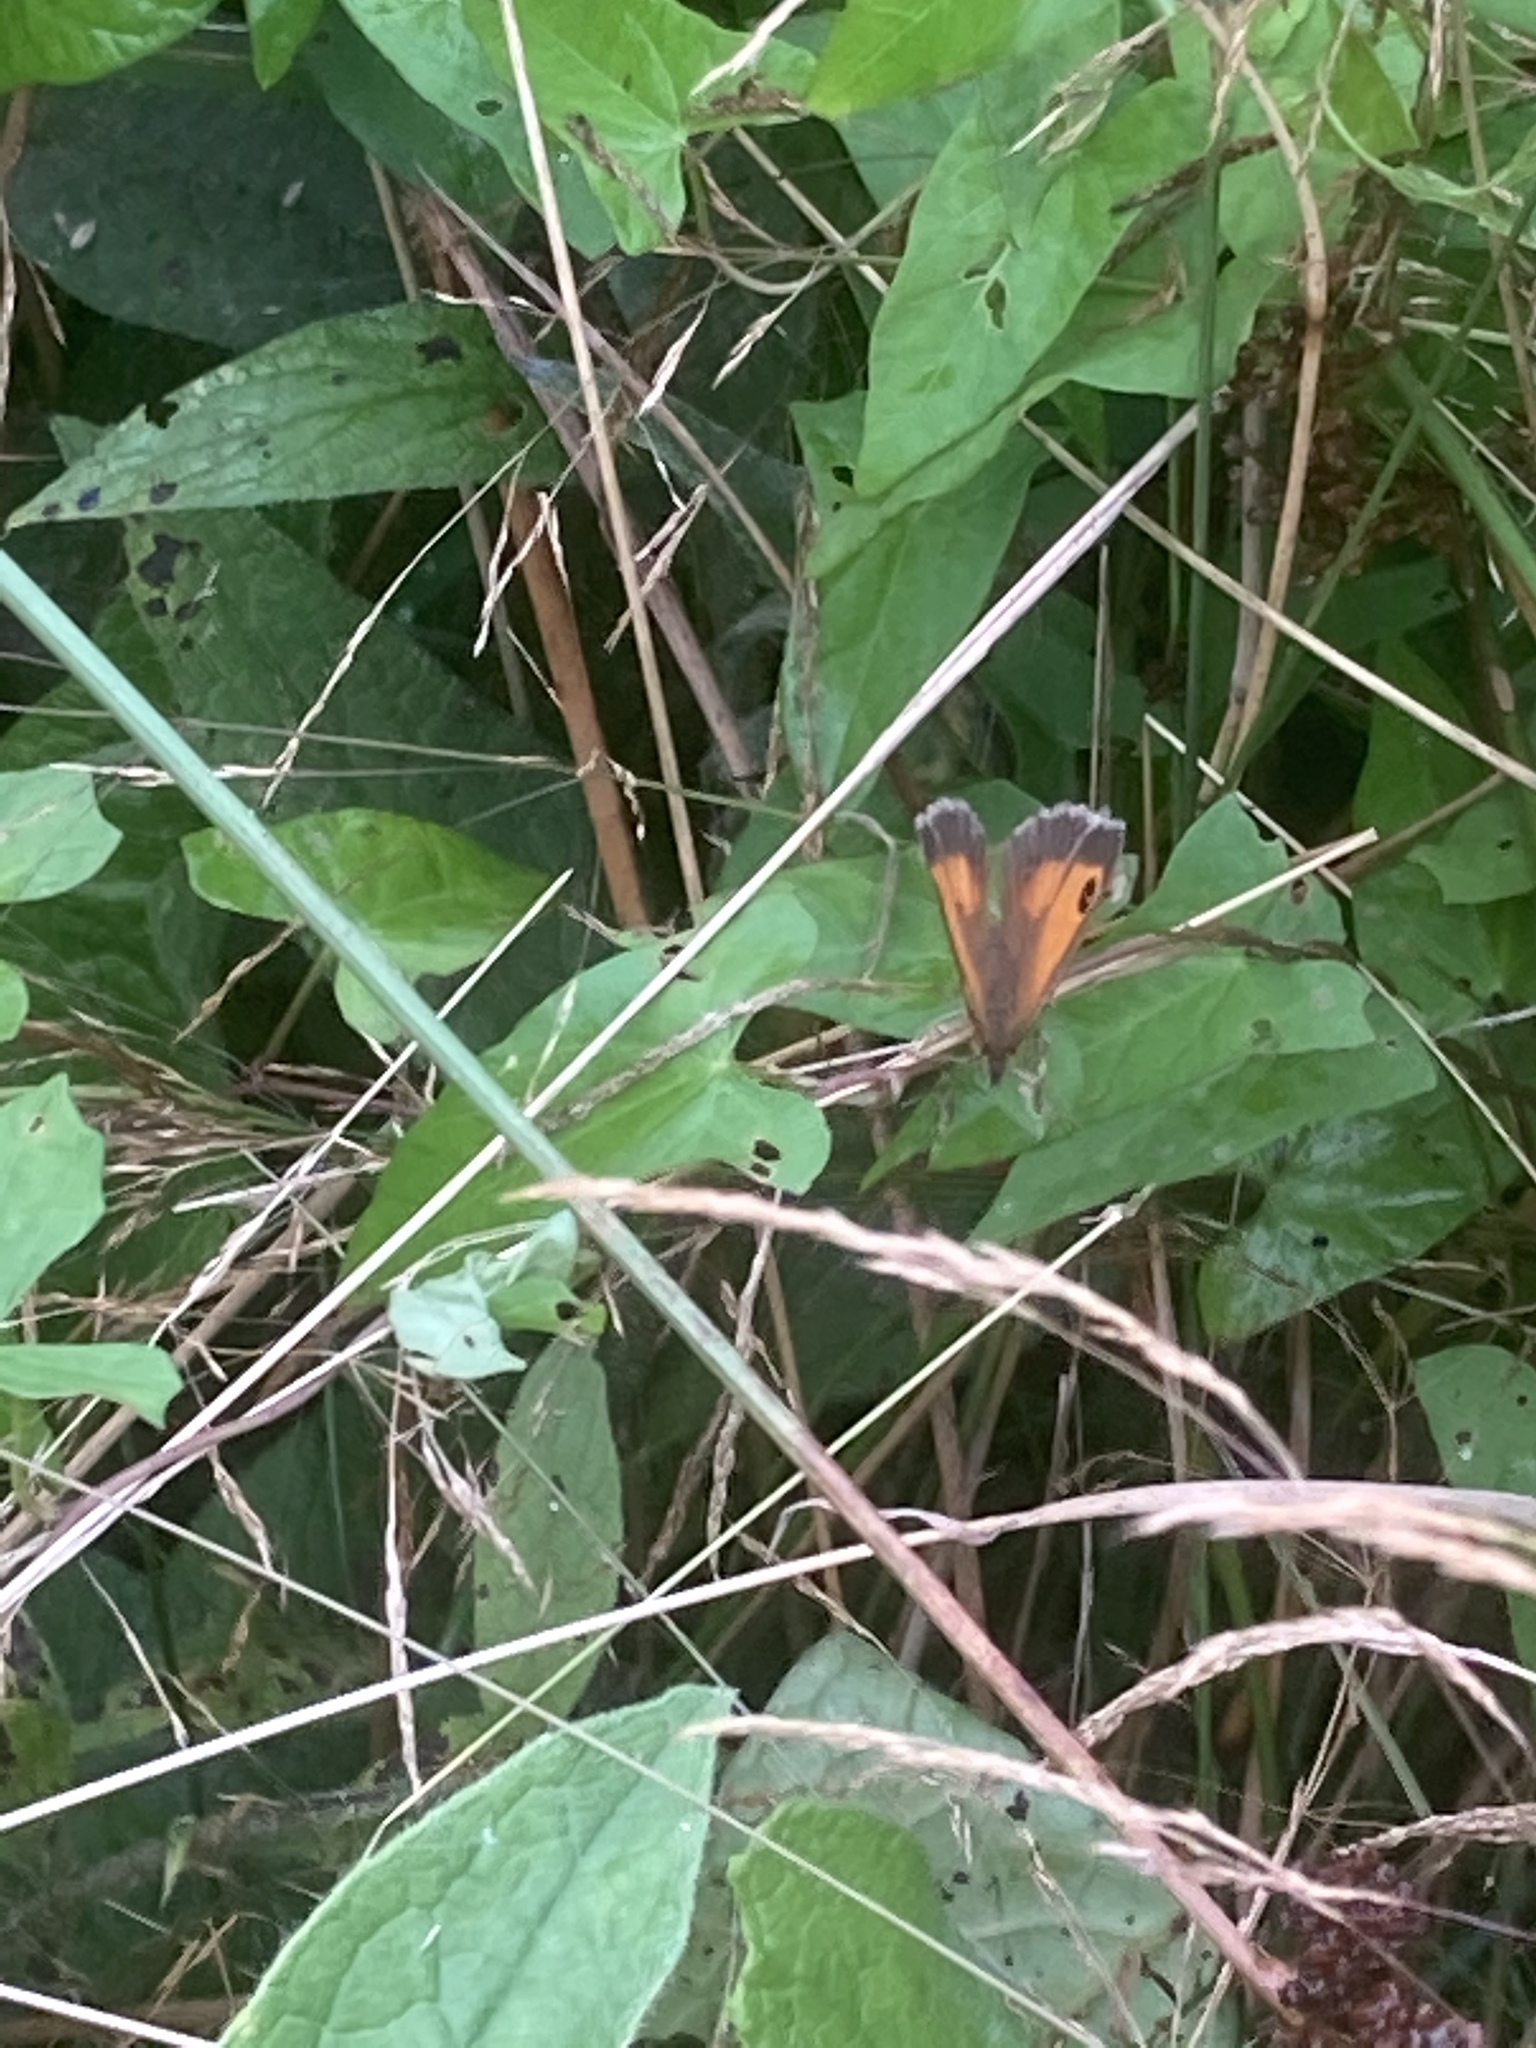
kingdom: Animalia
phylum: Arthropoda
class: Insecta
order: Lepidoptera
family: Nymphalidae
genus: Pyronia
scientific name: Pyronia tithonus
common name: Gatekeeper
